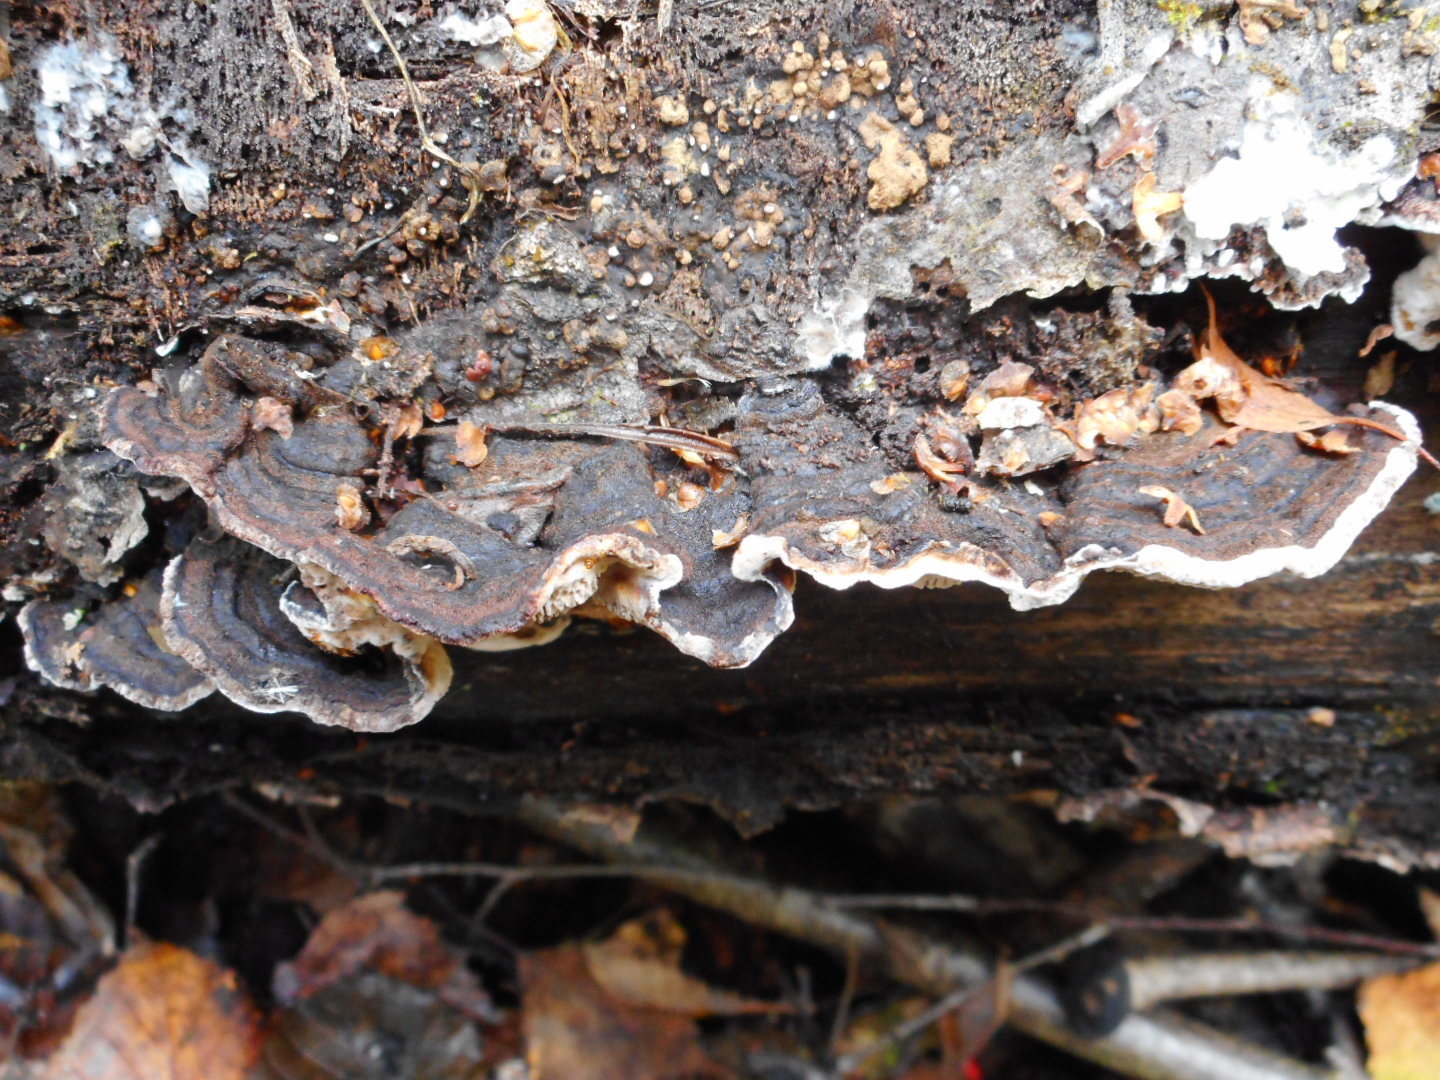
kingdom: Fungi
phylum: Basidiomycota
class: Agaricomycetes
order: Polyporales
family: Polyporaceae
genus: Podofomes
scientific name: Podofomes mollis
